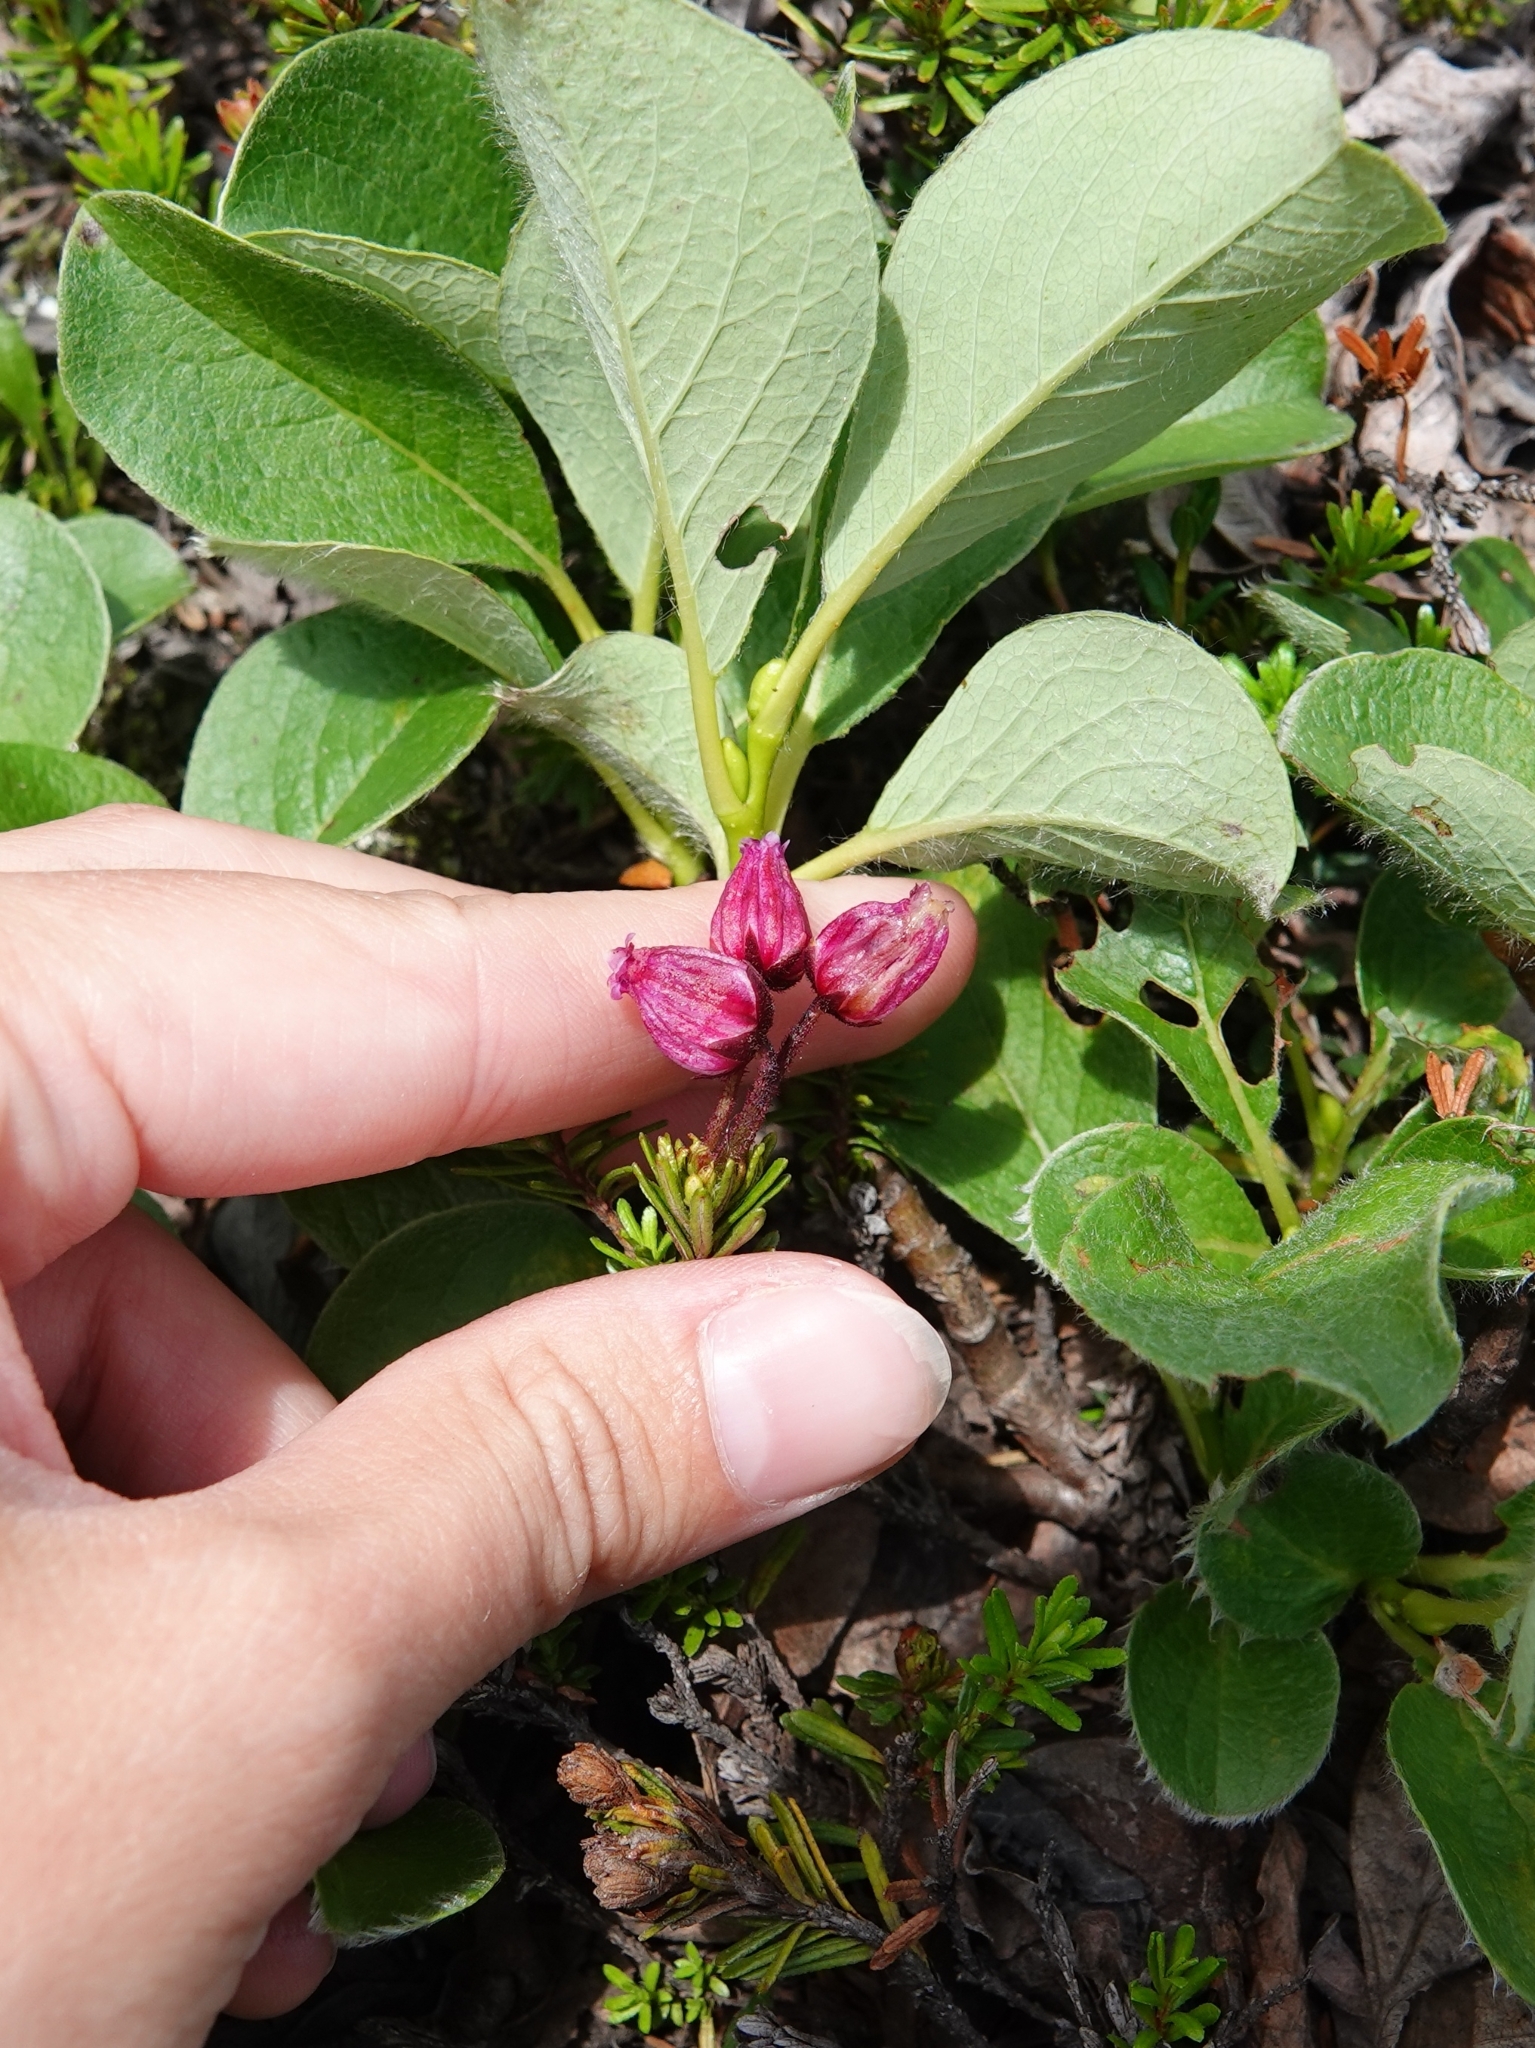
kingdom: Plantae
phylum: Tracheophyta
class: Magnoliopsida
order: Ericales
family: Ericaceae
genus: Phyllodoce
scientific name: Phyllodoce caerulea
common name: Blue heath
